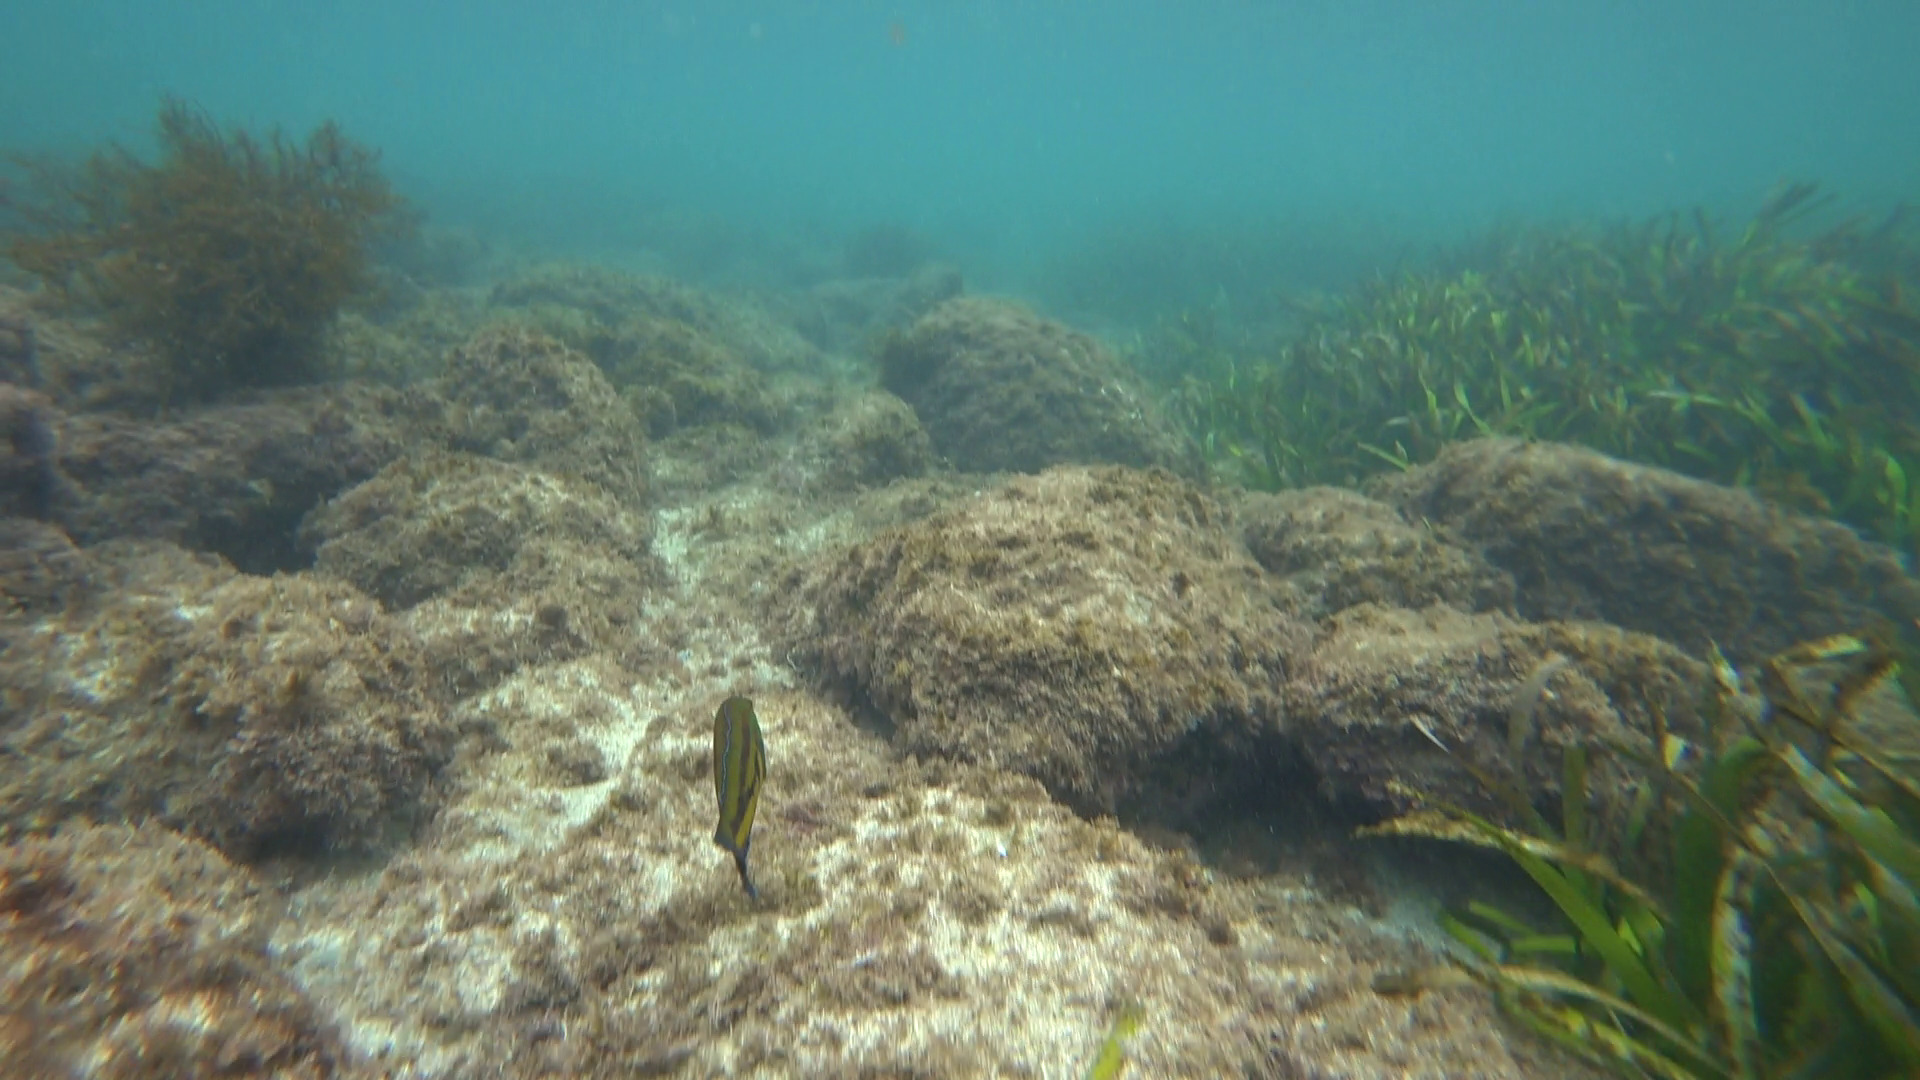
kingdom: Animalia
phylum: Chordata
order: Perciformes
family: Labridae
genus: Pictilabrus
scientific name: Pictilabrus laticlavius
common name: Patrician wrasse
